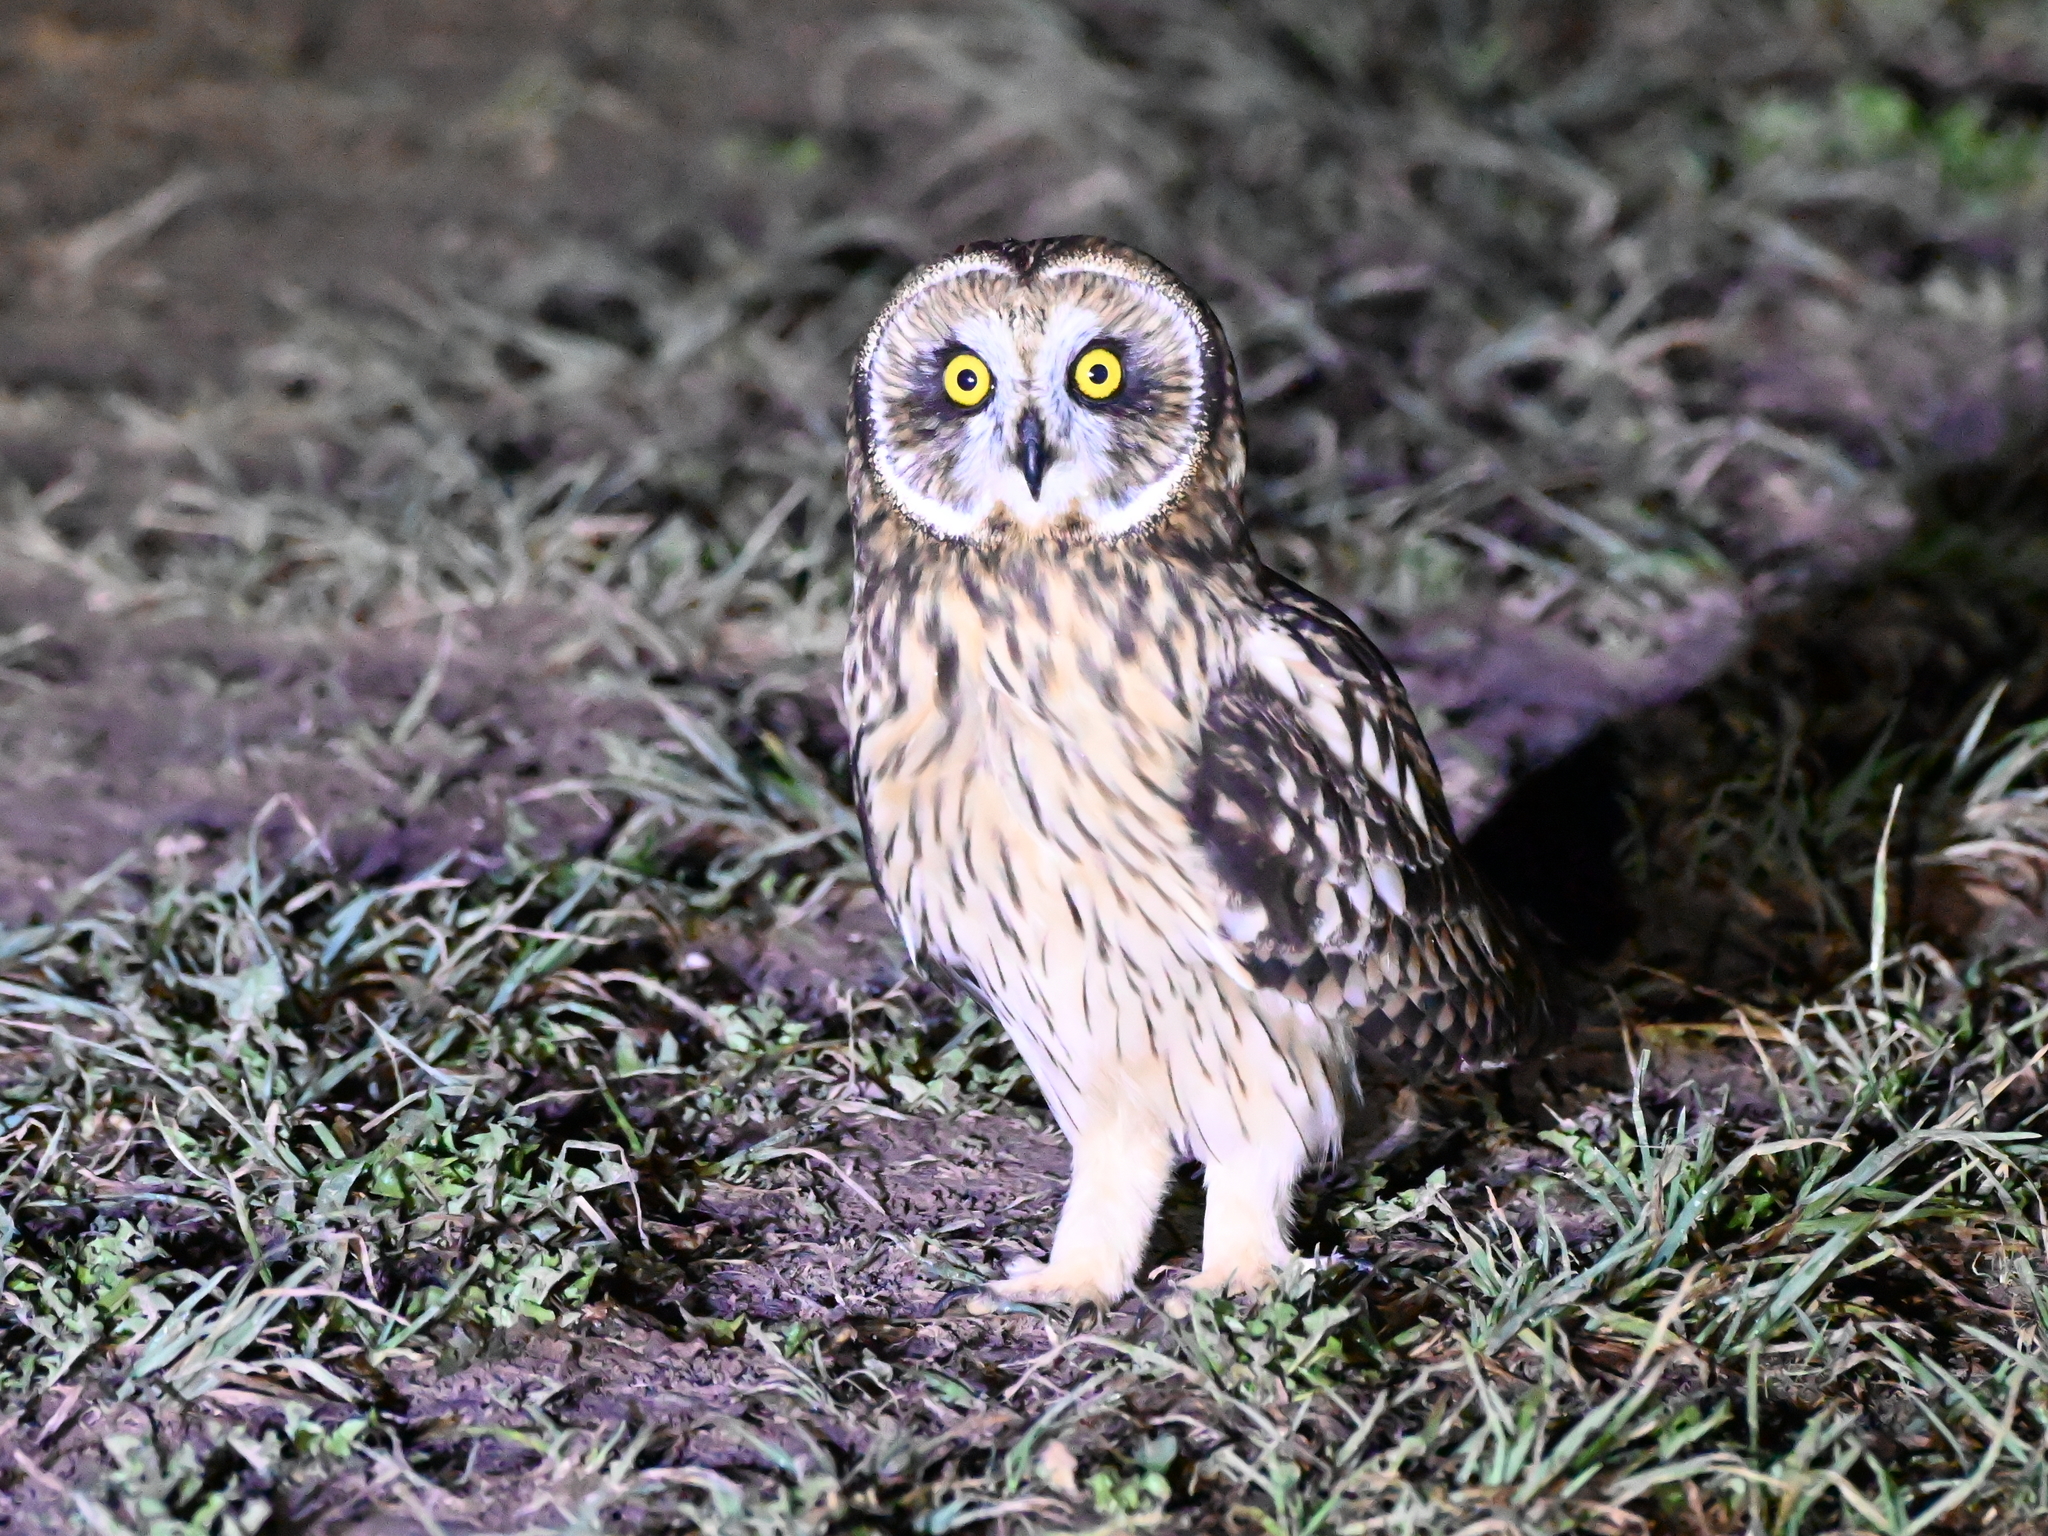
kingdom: Animalia
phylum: Chordata
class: Aves
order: Strigiformes
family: Strigidae
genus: Asio
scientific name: Asio flammeus
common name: Short-eared owl
